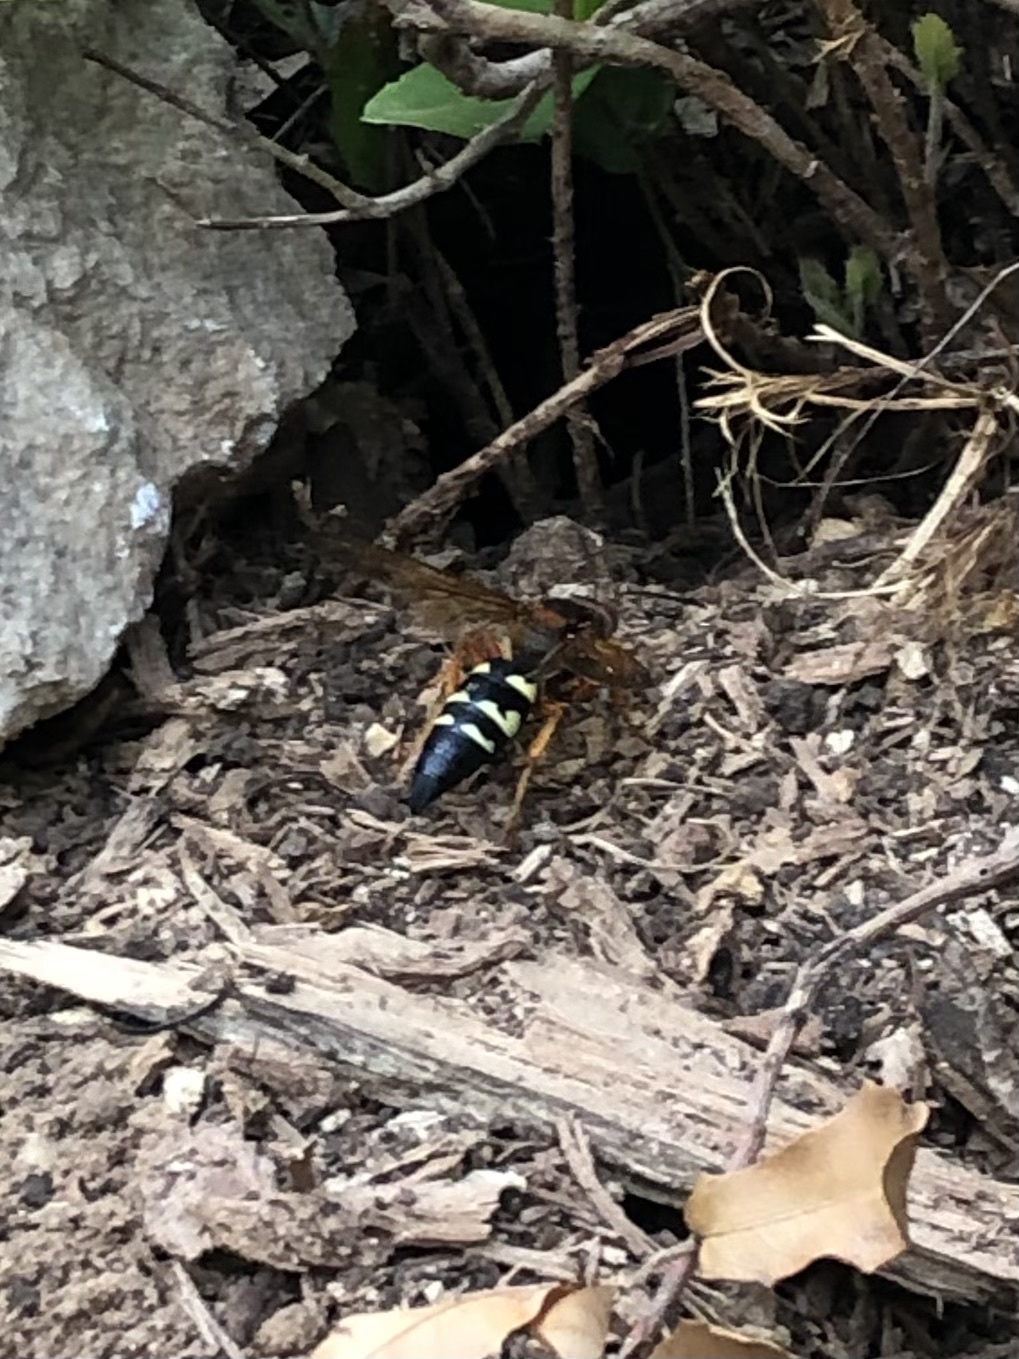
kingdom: Animalia
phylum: Arthropoda
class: Insecta
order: Hymenoptera
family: Crabronidae
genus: Sphecius
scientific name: Sphecius speciosus
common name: Cicada killer
